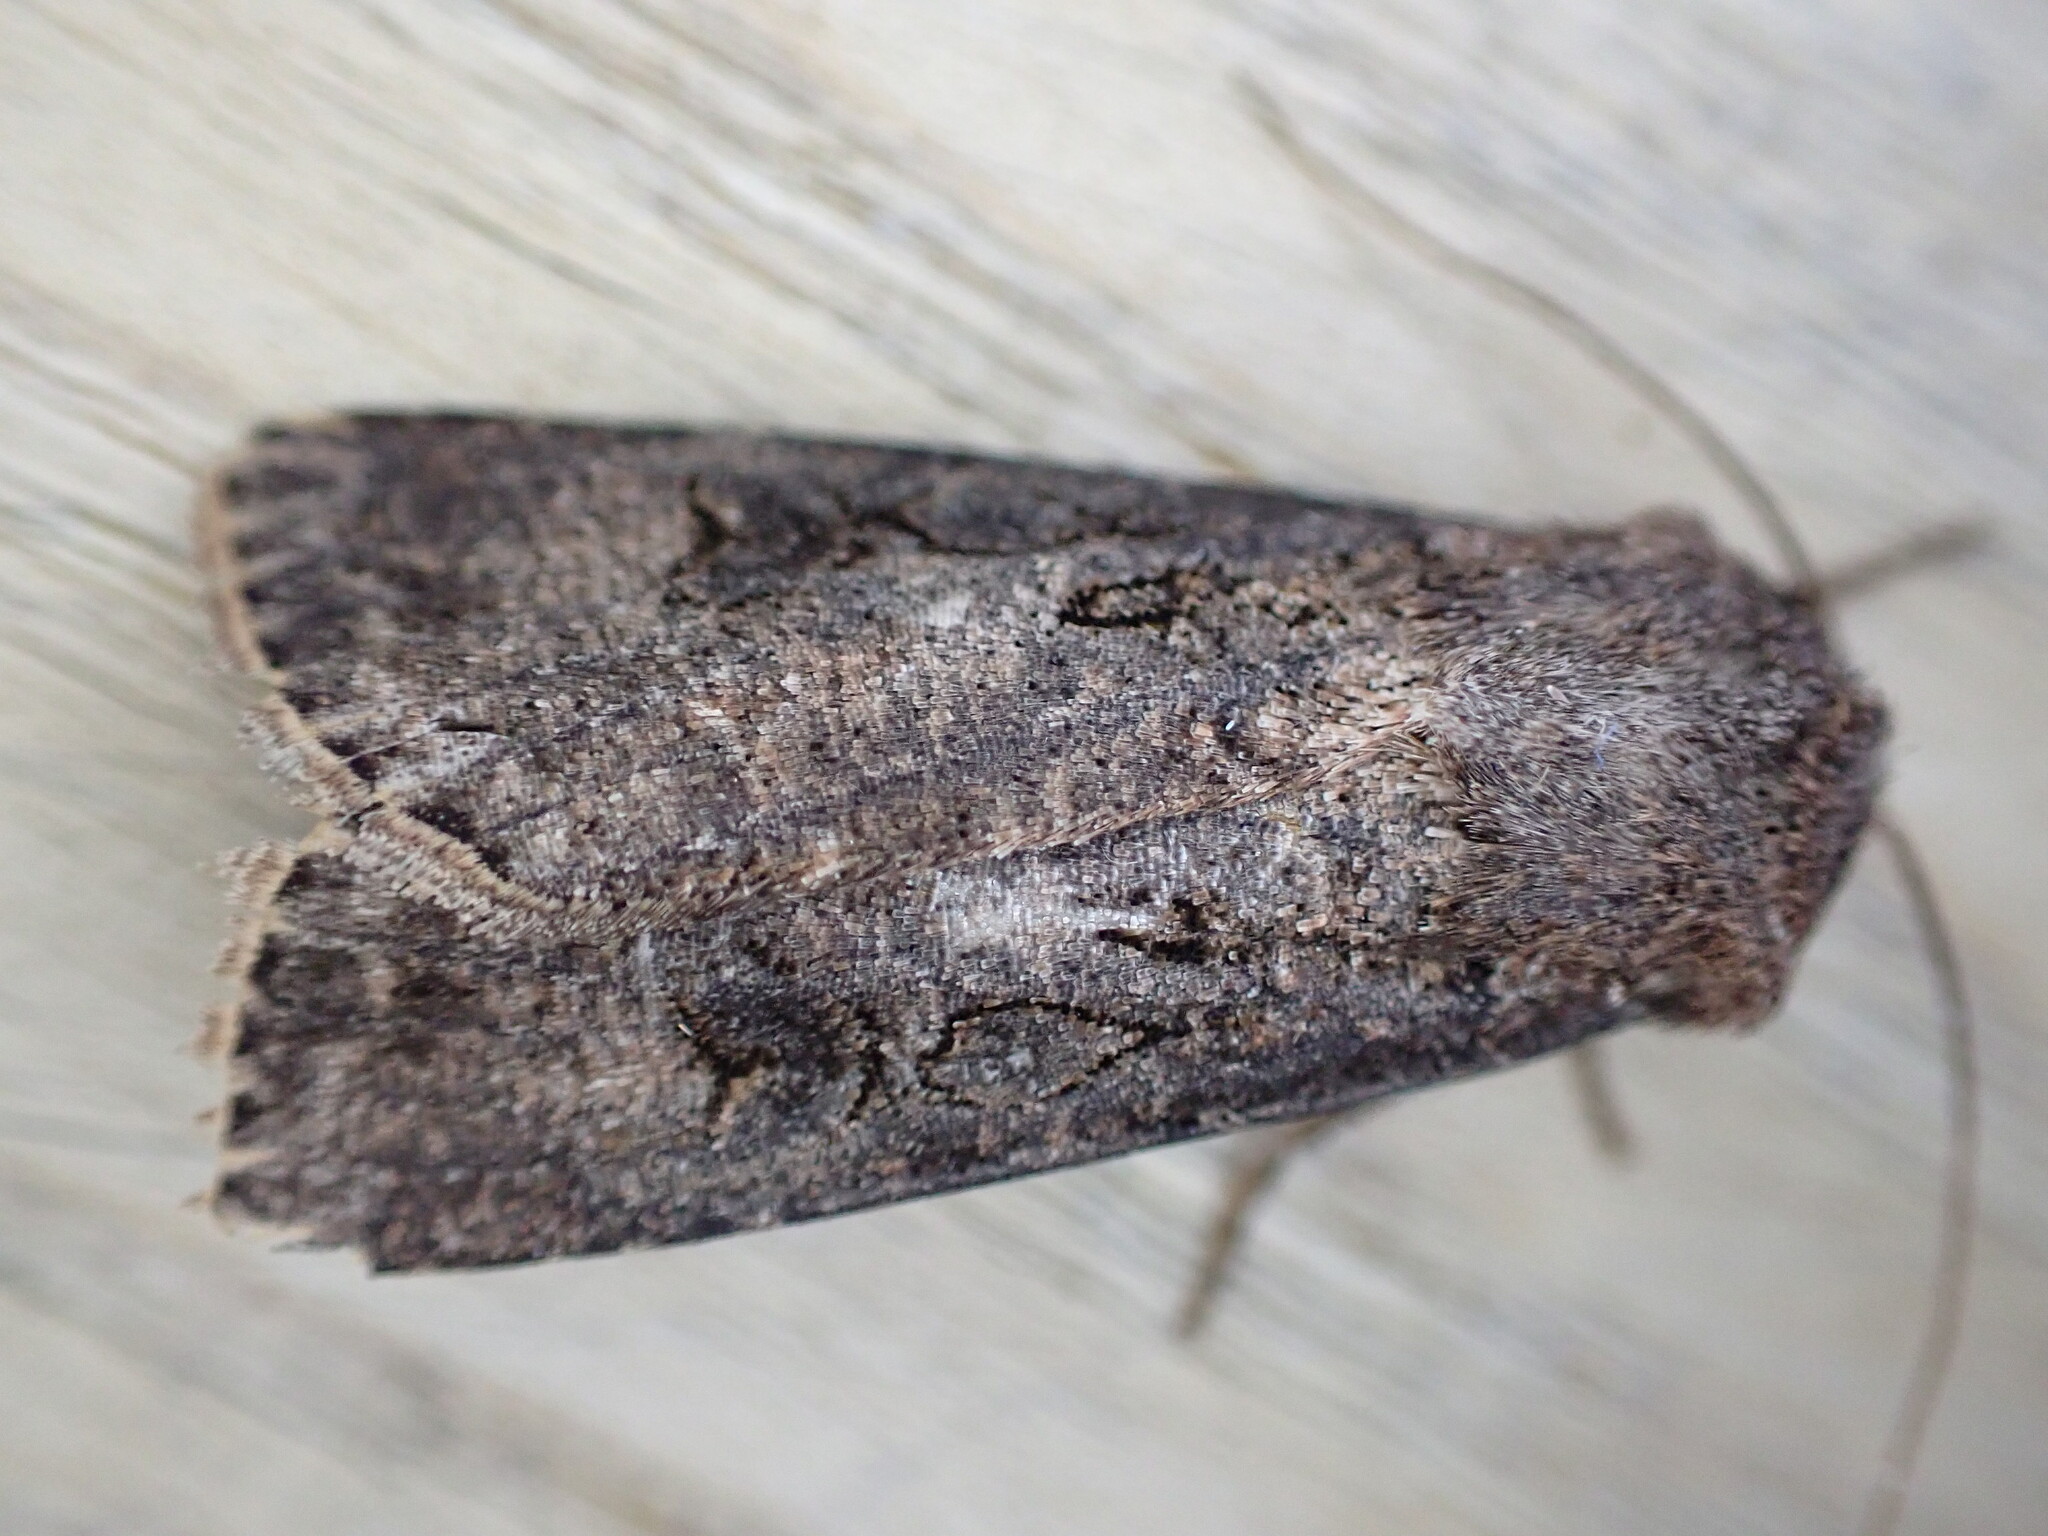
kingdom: Animalia
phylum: Arthropoda
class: Insecta
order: Lepidoptera
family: Noctuidae
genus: Agrotis
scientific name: Agrotis segetum
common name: Turnip moth
